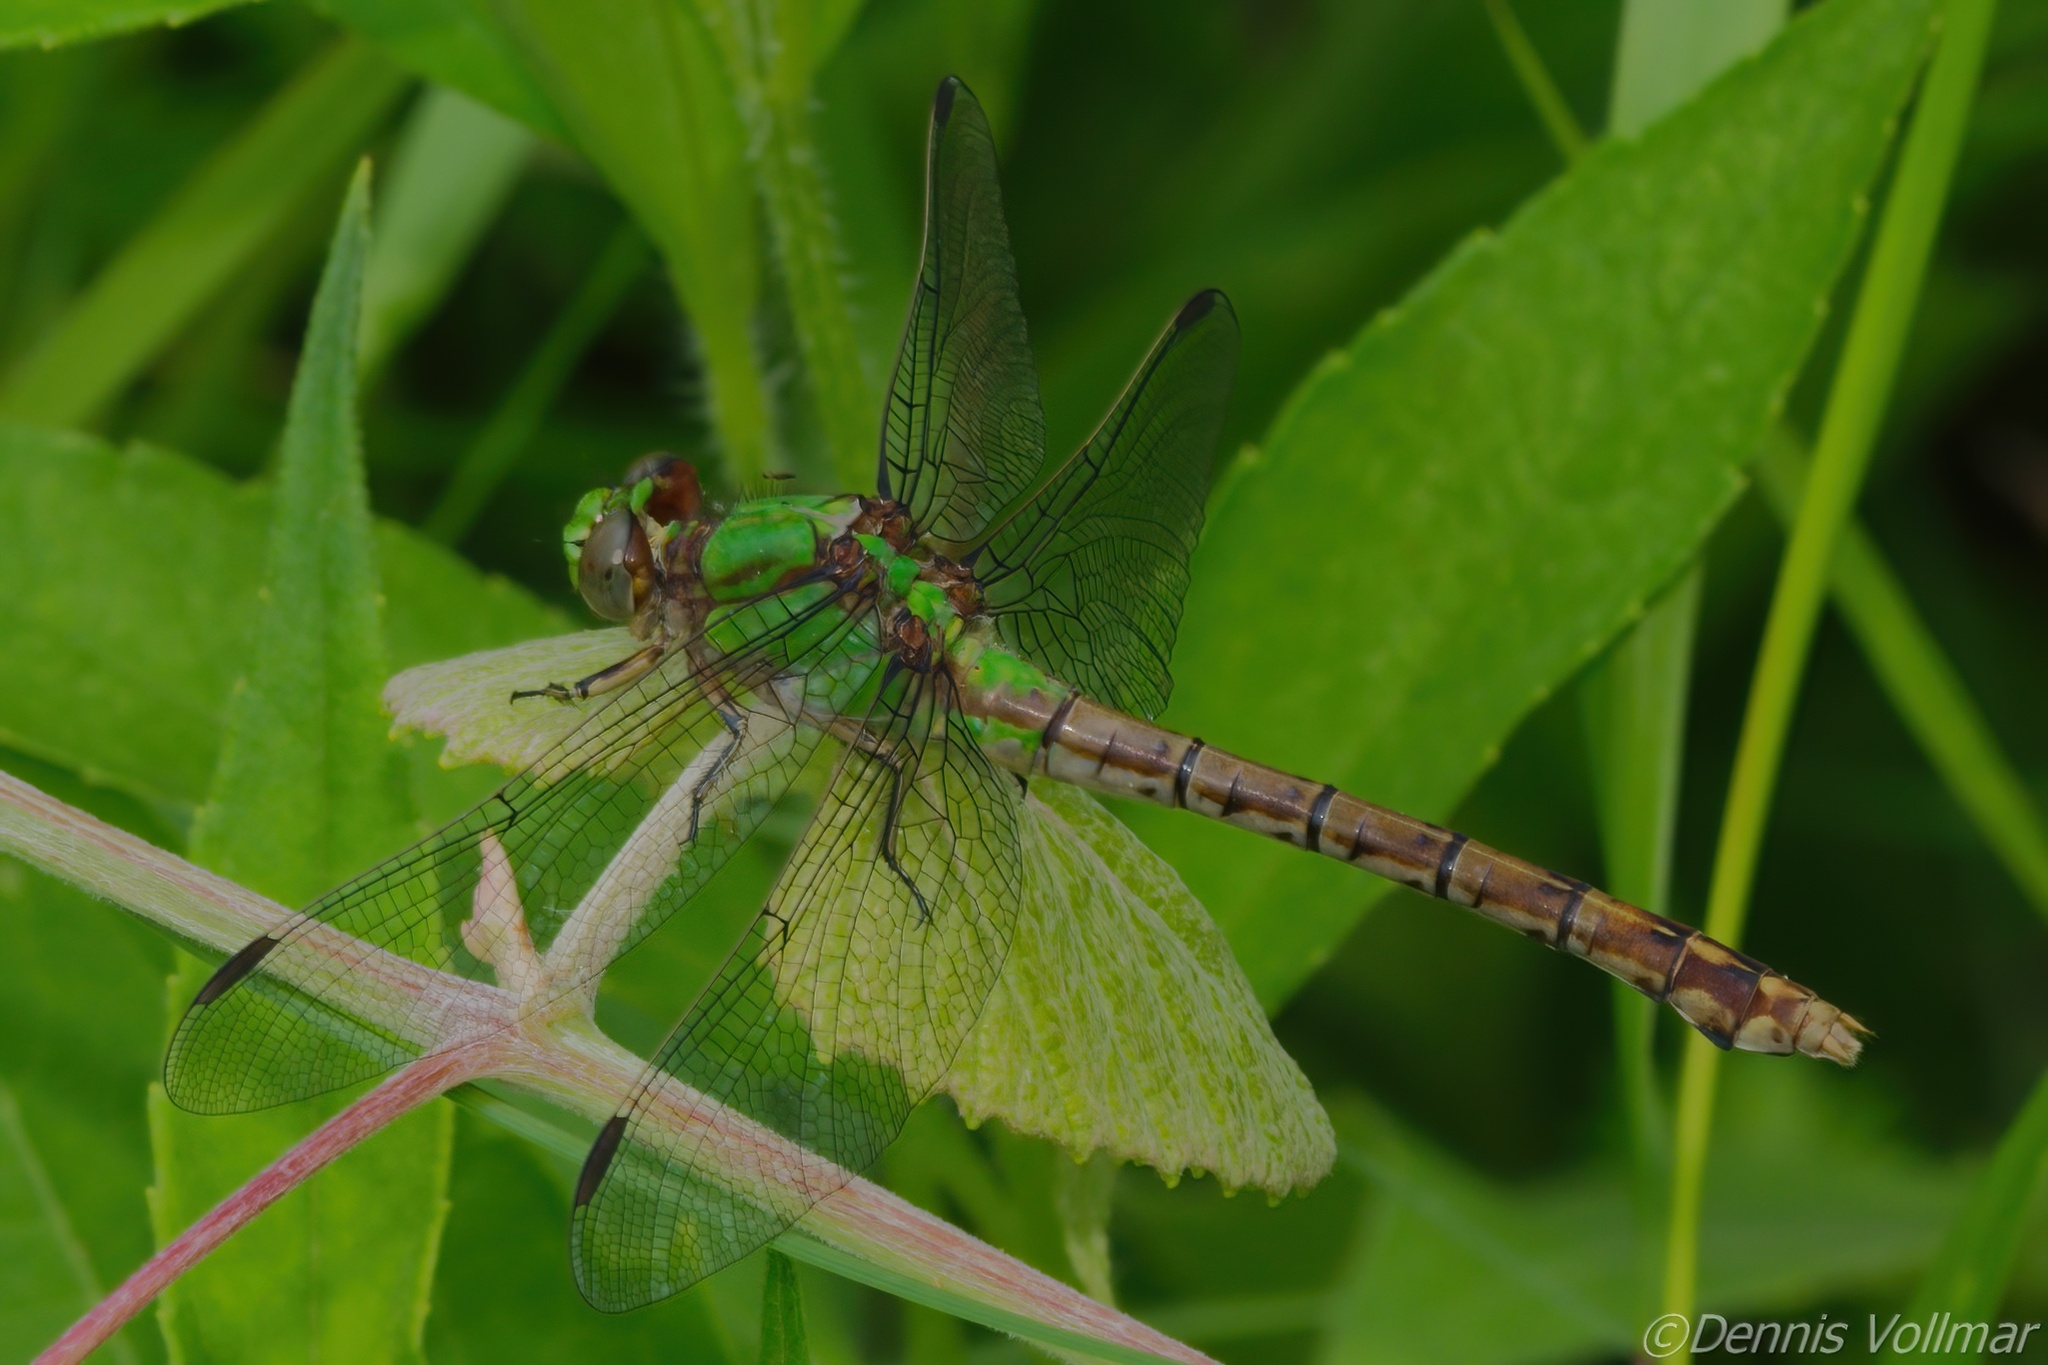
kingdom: Animalia
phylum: Arthropoda
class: Insecta
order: Odonata
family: Gomphidae
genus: Ophiogomphus
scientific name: Ophiogomphus rupinsulensis
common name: Rusty snaketail
